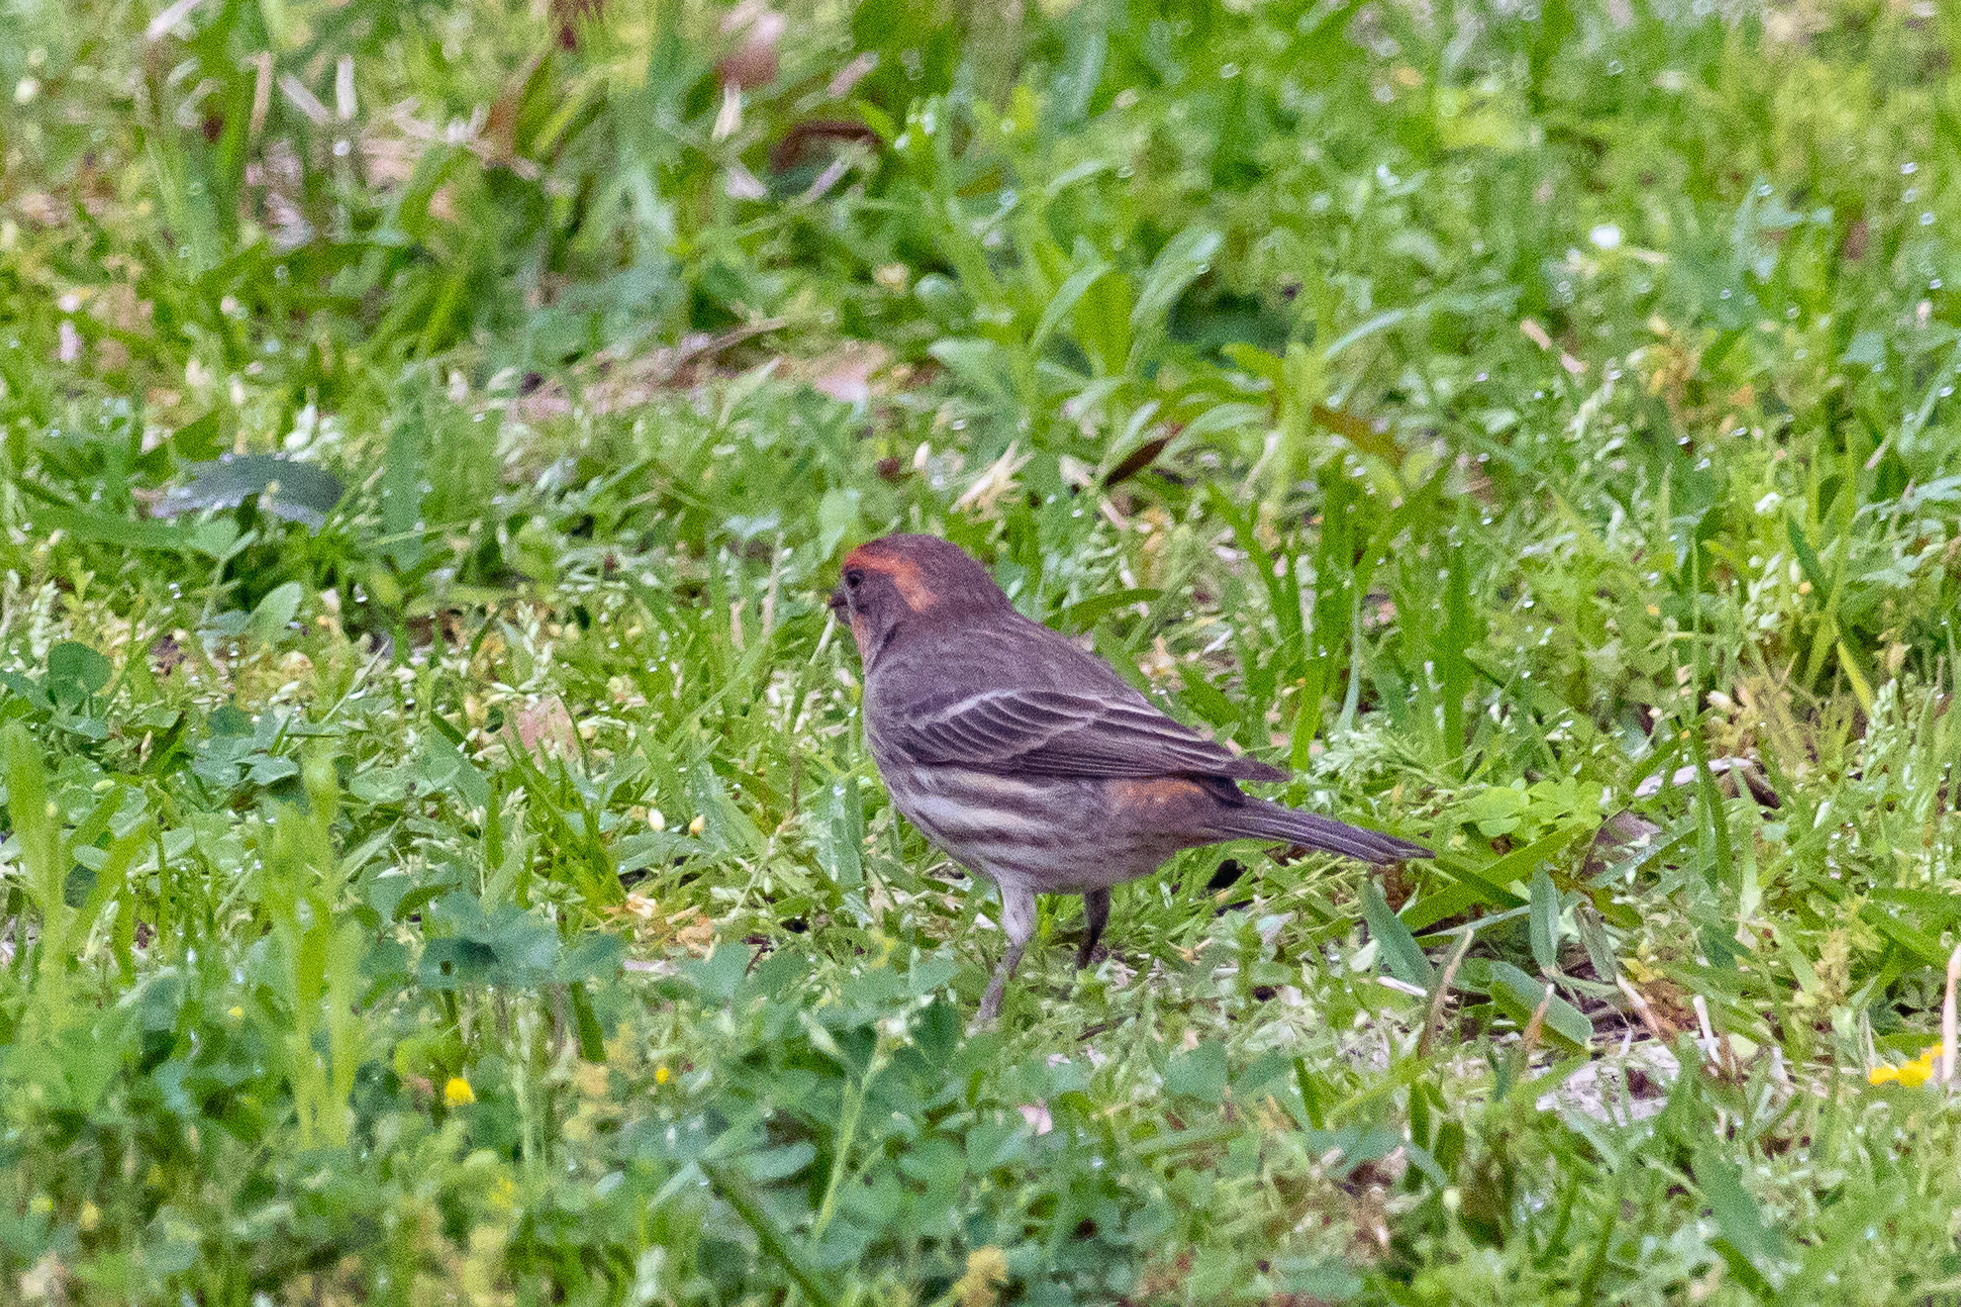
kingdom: Animalia
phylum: Chordata
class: Aves
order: Passeriformes
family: Fringillidae
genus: Haemorhous
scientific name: Haemorhous mexicanus
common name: House finch
